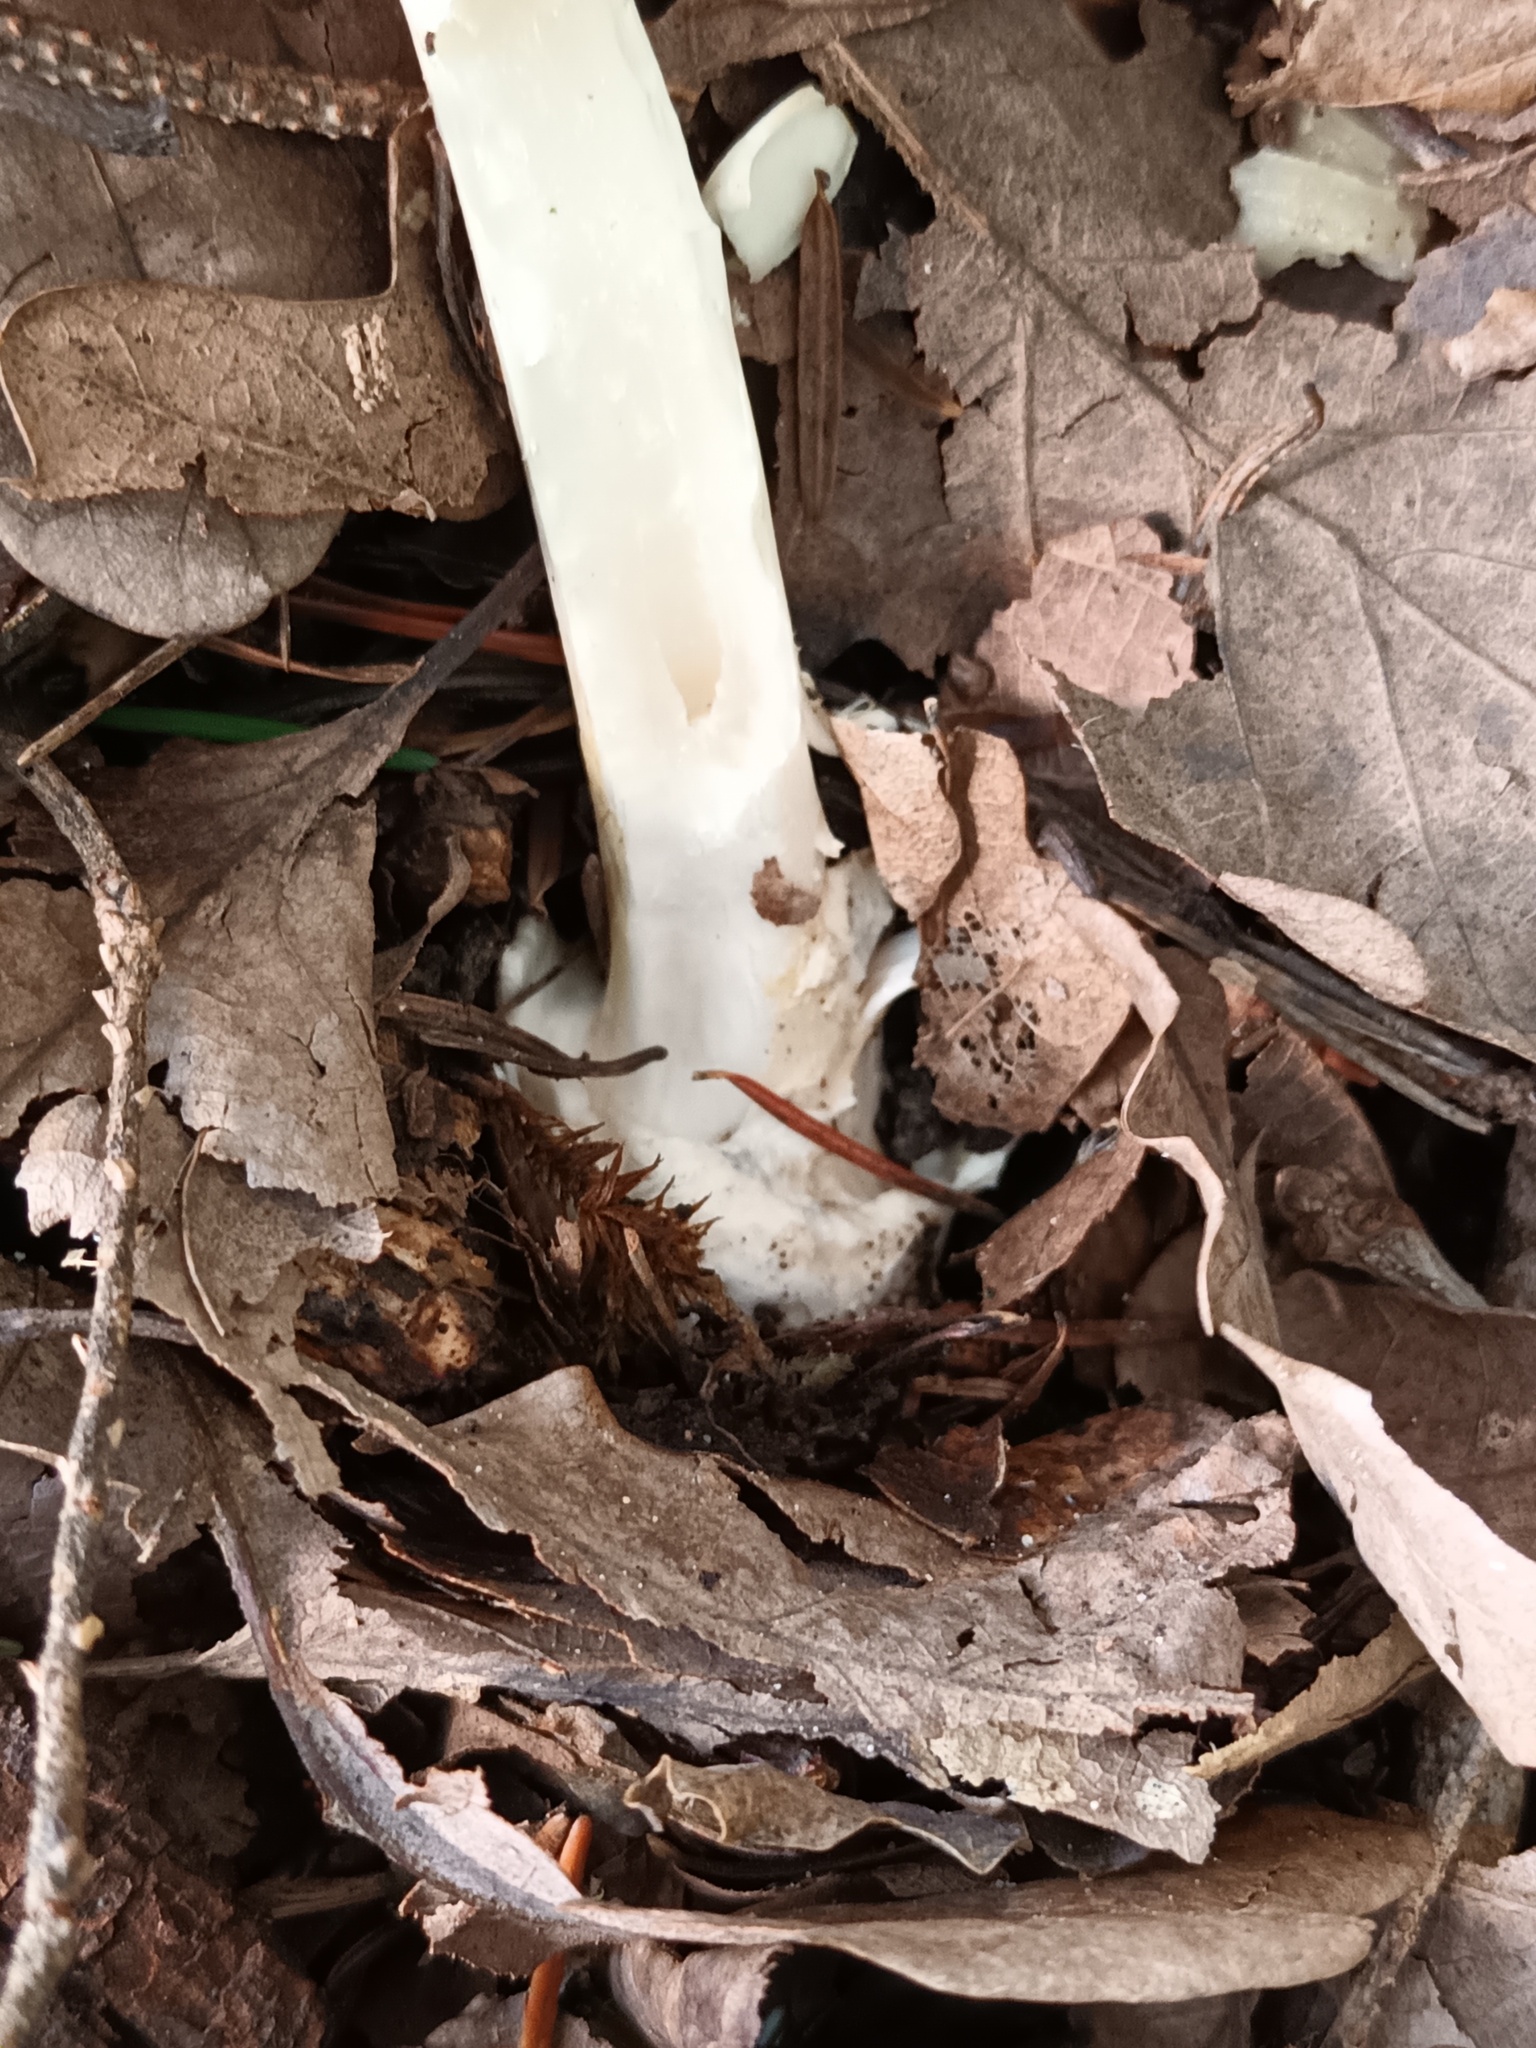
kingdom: Fungi
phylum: Basidiomycota
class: Agaricomycetes
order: Agaricales
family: Amanitaceae
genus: Amanita
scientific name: Amanita phalloides
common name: Death cap
